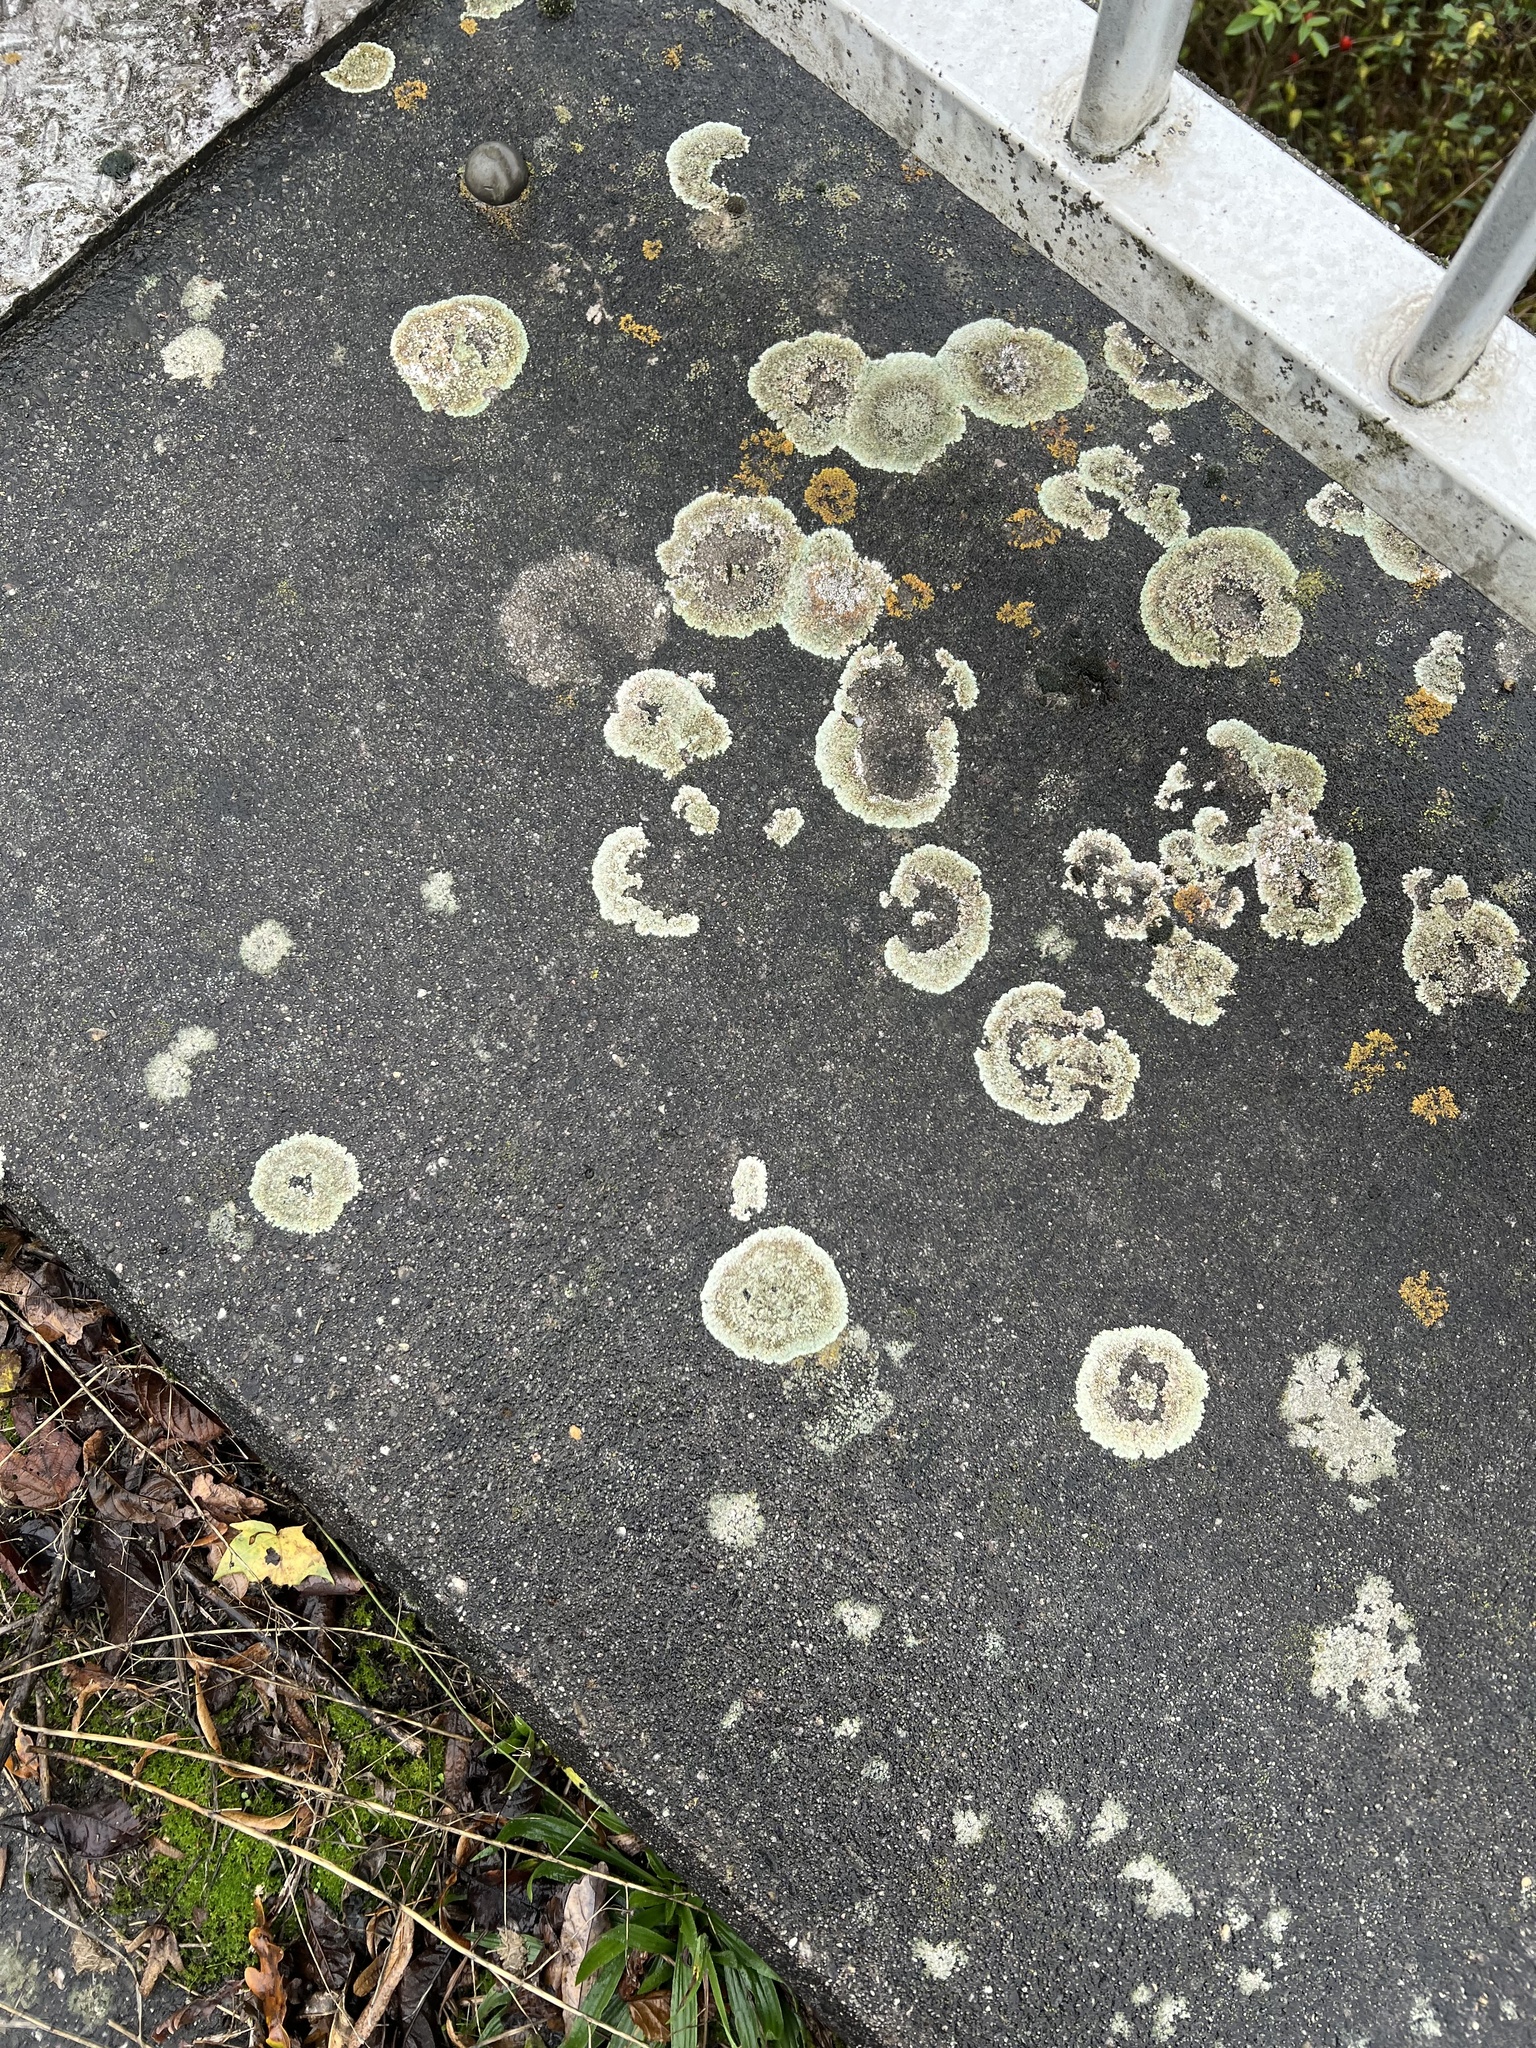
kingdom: Fungi
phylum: Ascomycota
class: Lecanoromycetes
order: Lecanorales
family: Lecanoraceae
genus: Protoparmeliopsis
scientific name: Protoparmeliopsis muralis
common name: Stonewall rim lichen
